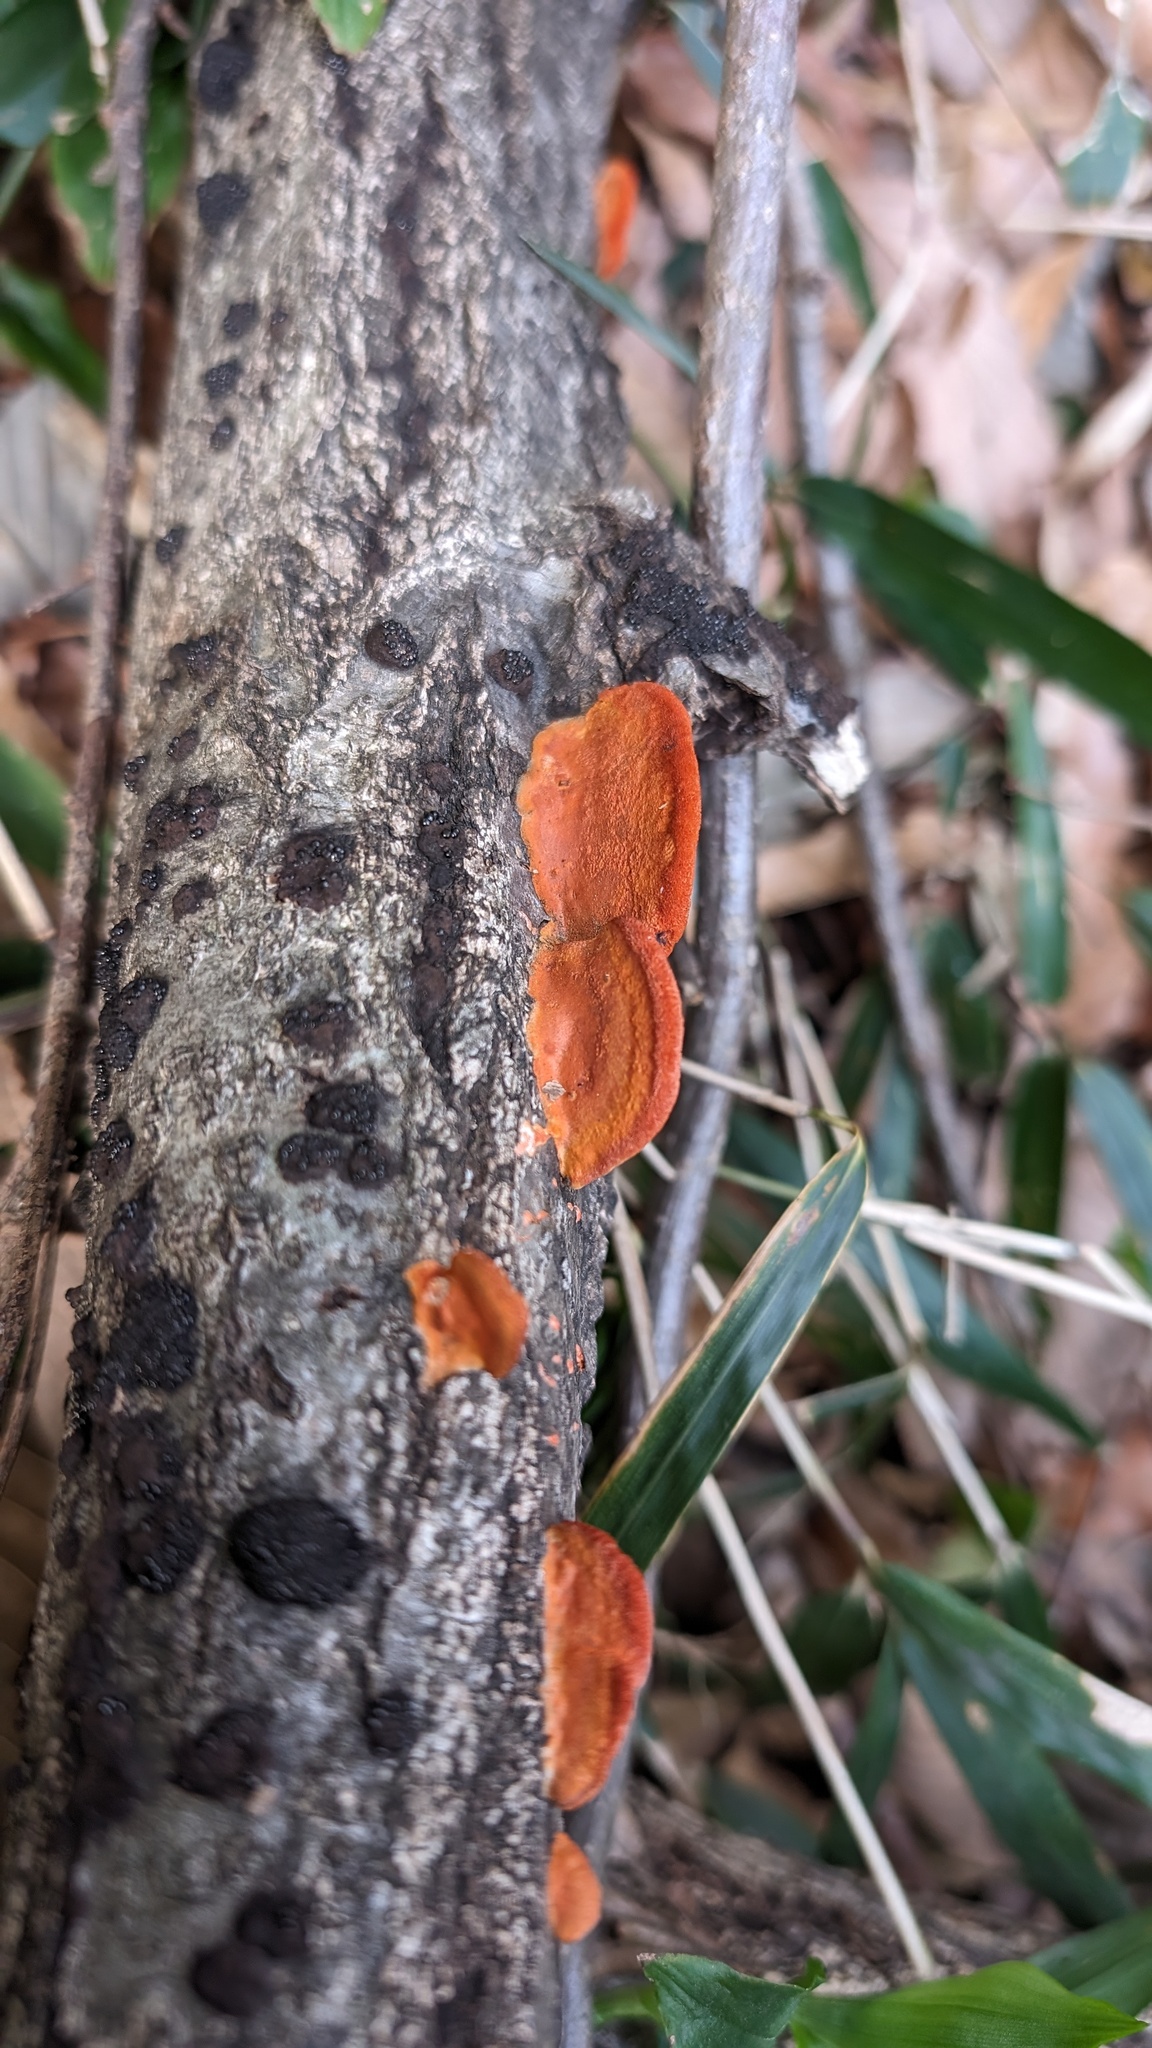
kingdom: Fungi
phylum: Basidiomycota
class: Agaricomycetes
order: Polyporales
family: Polyporaceae
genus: Trametes
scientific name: Trametes coccinea
